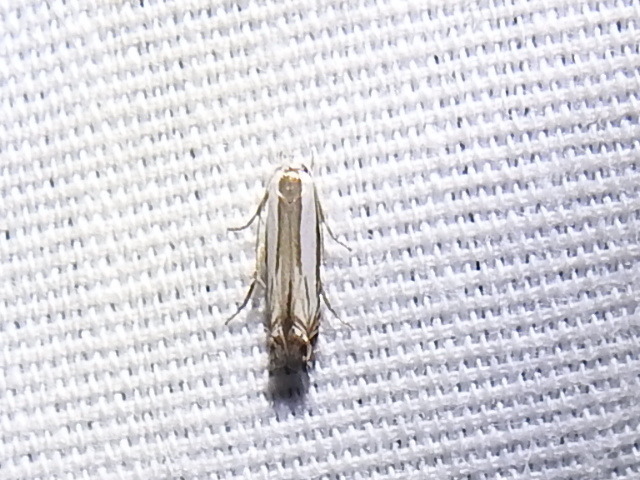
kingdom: Animalia
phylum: Arthropoda
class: Insecta
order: Lepidoptera
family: Gelechiidae
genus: Polyhymno
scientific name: Polyhymno acaciella
